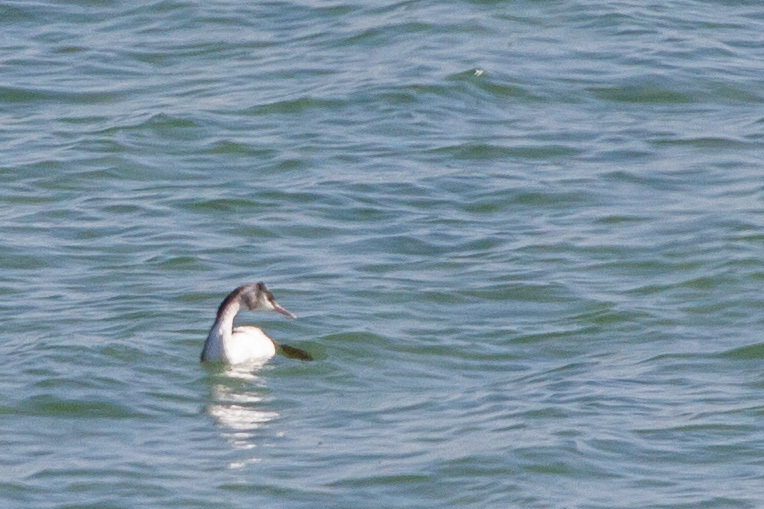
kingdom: Animalia
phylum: Chordata
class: Aves
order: Podicipediformes
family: Podicipedidae
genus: Podiceps
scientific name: Podiceps cristatus
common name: Great crested grebe
